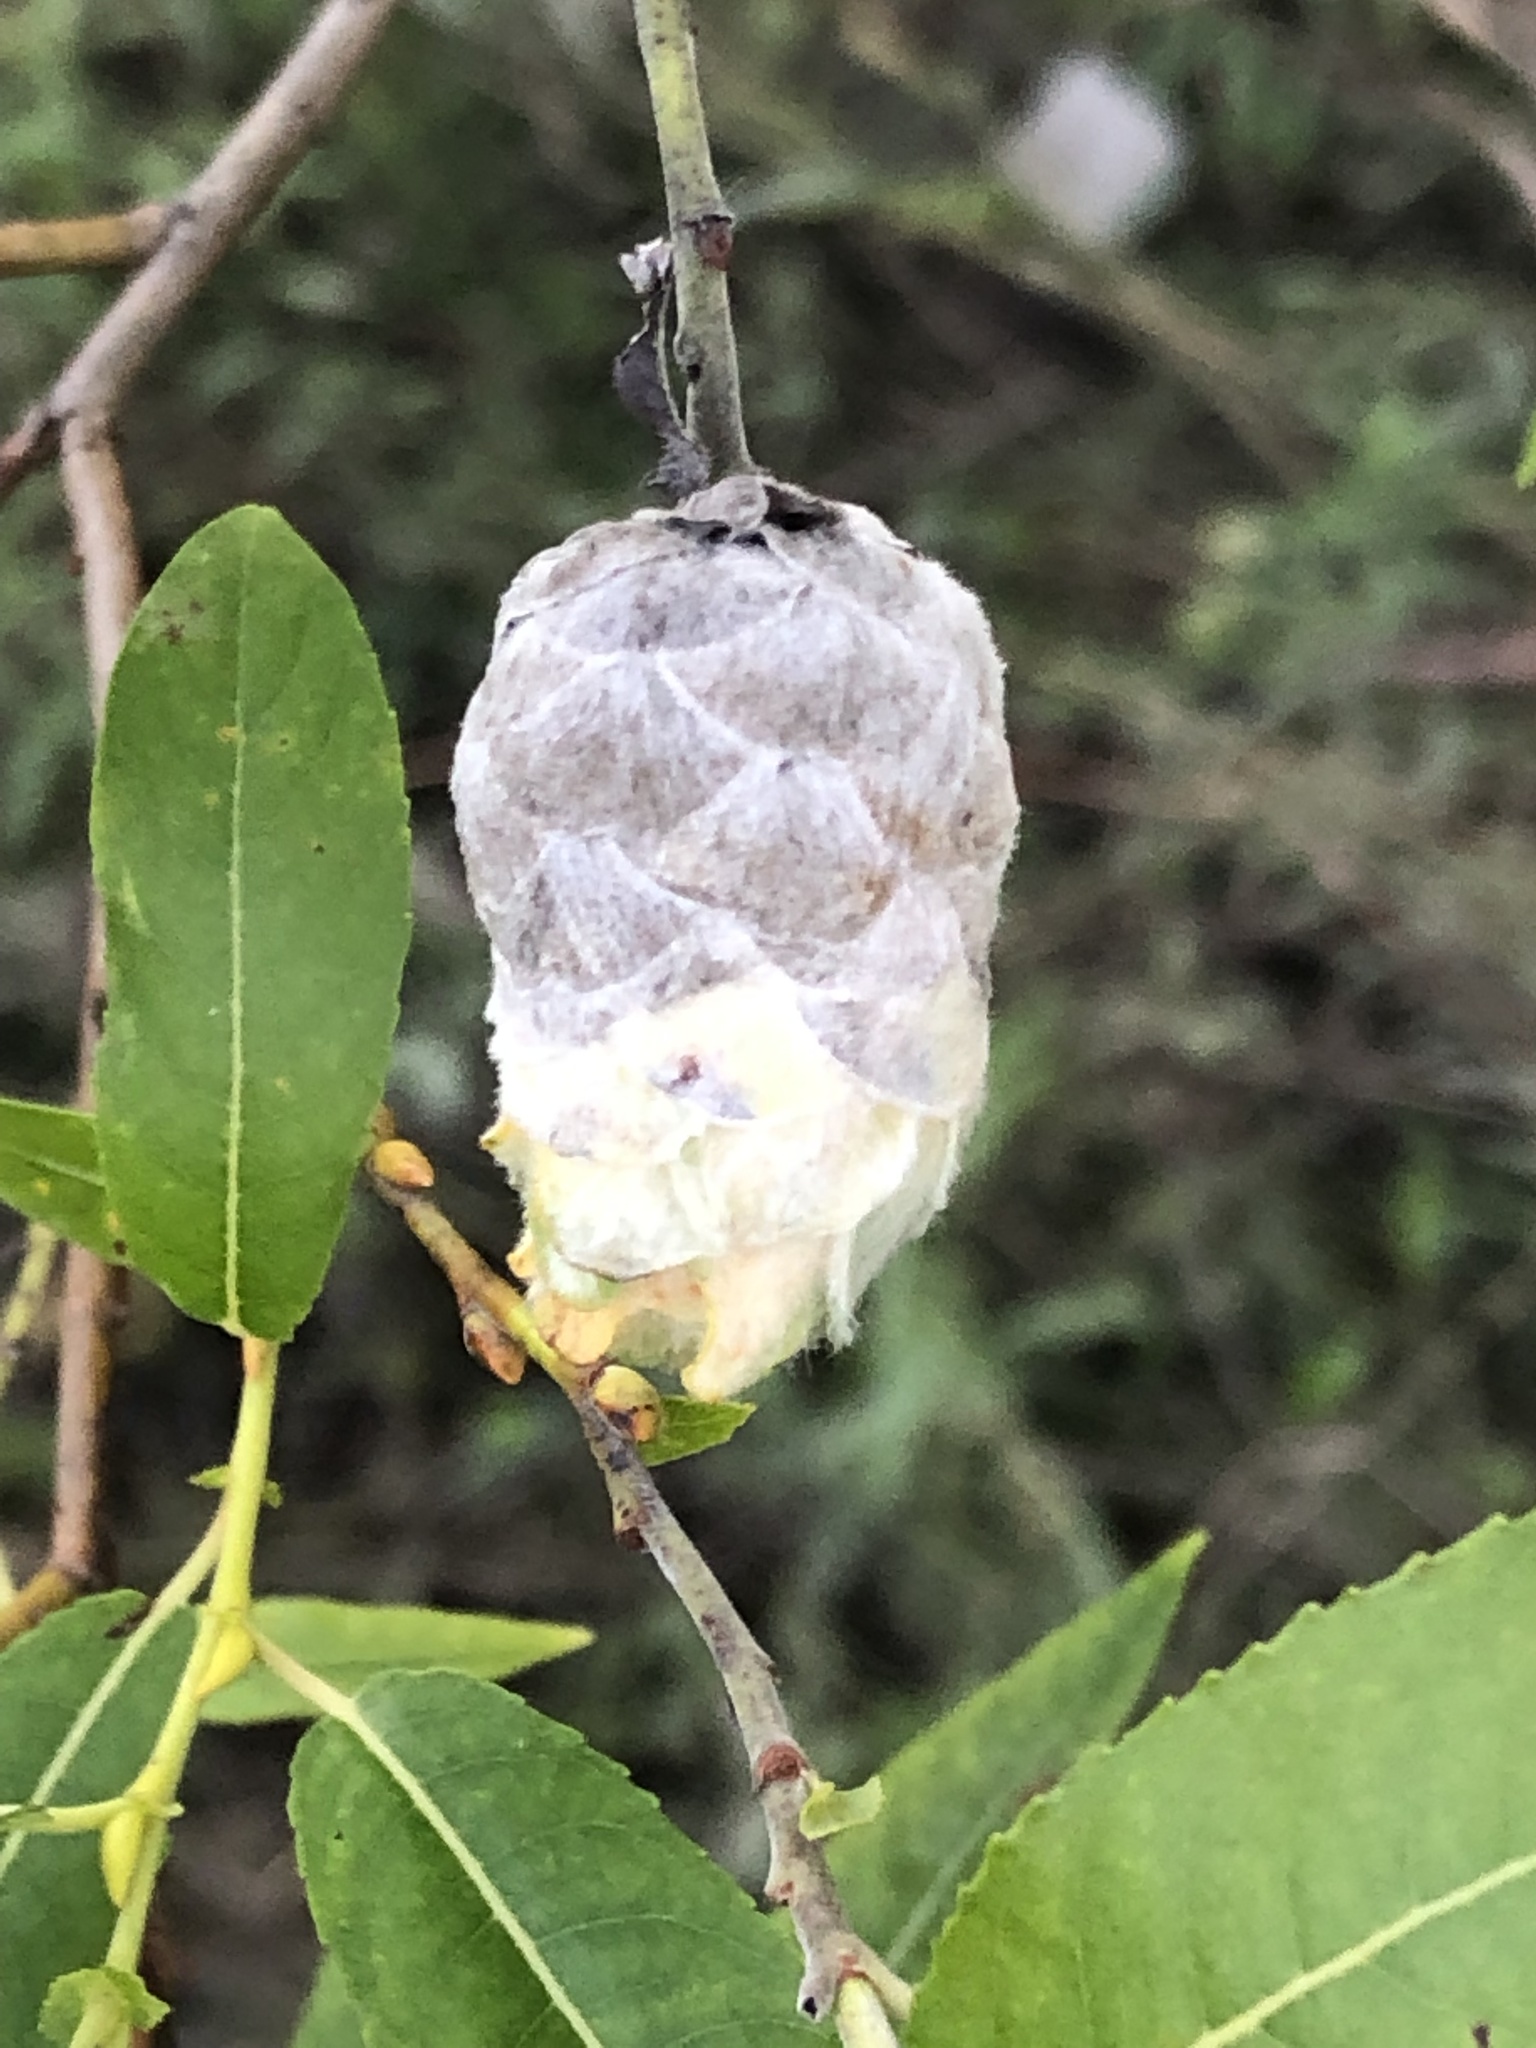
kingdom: Animalia
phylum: Arthropoda
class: Insecta
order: Diptera
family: Cecidomyiidae
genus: Rabdophaga
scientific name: Rabdophaga strobiloides
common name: Willow pinecone gall midge
